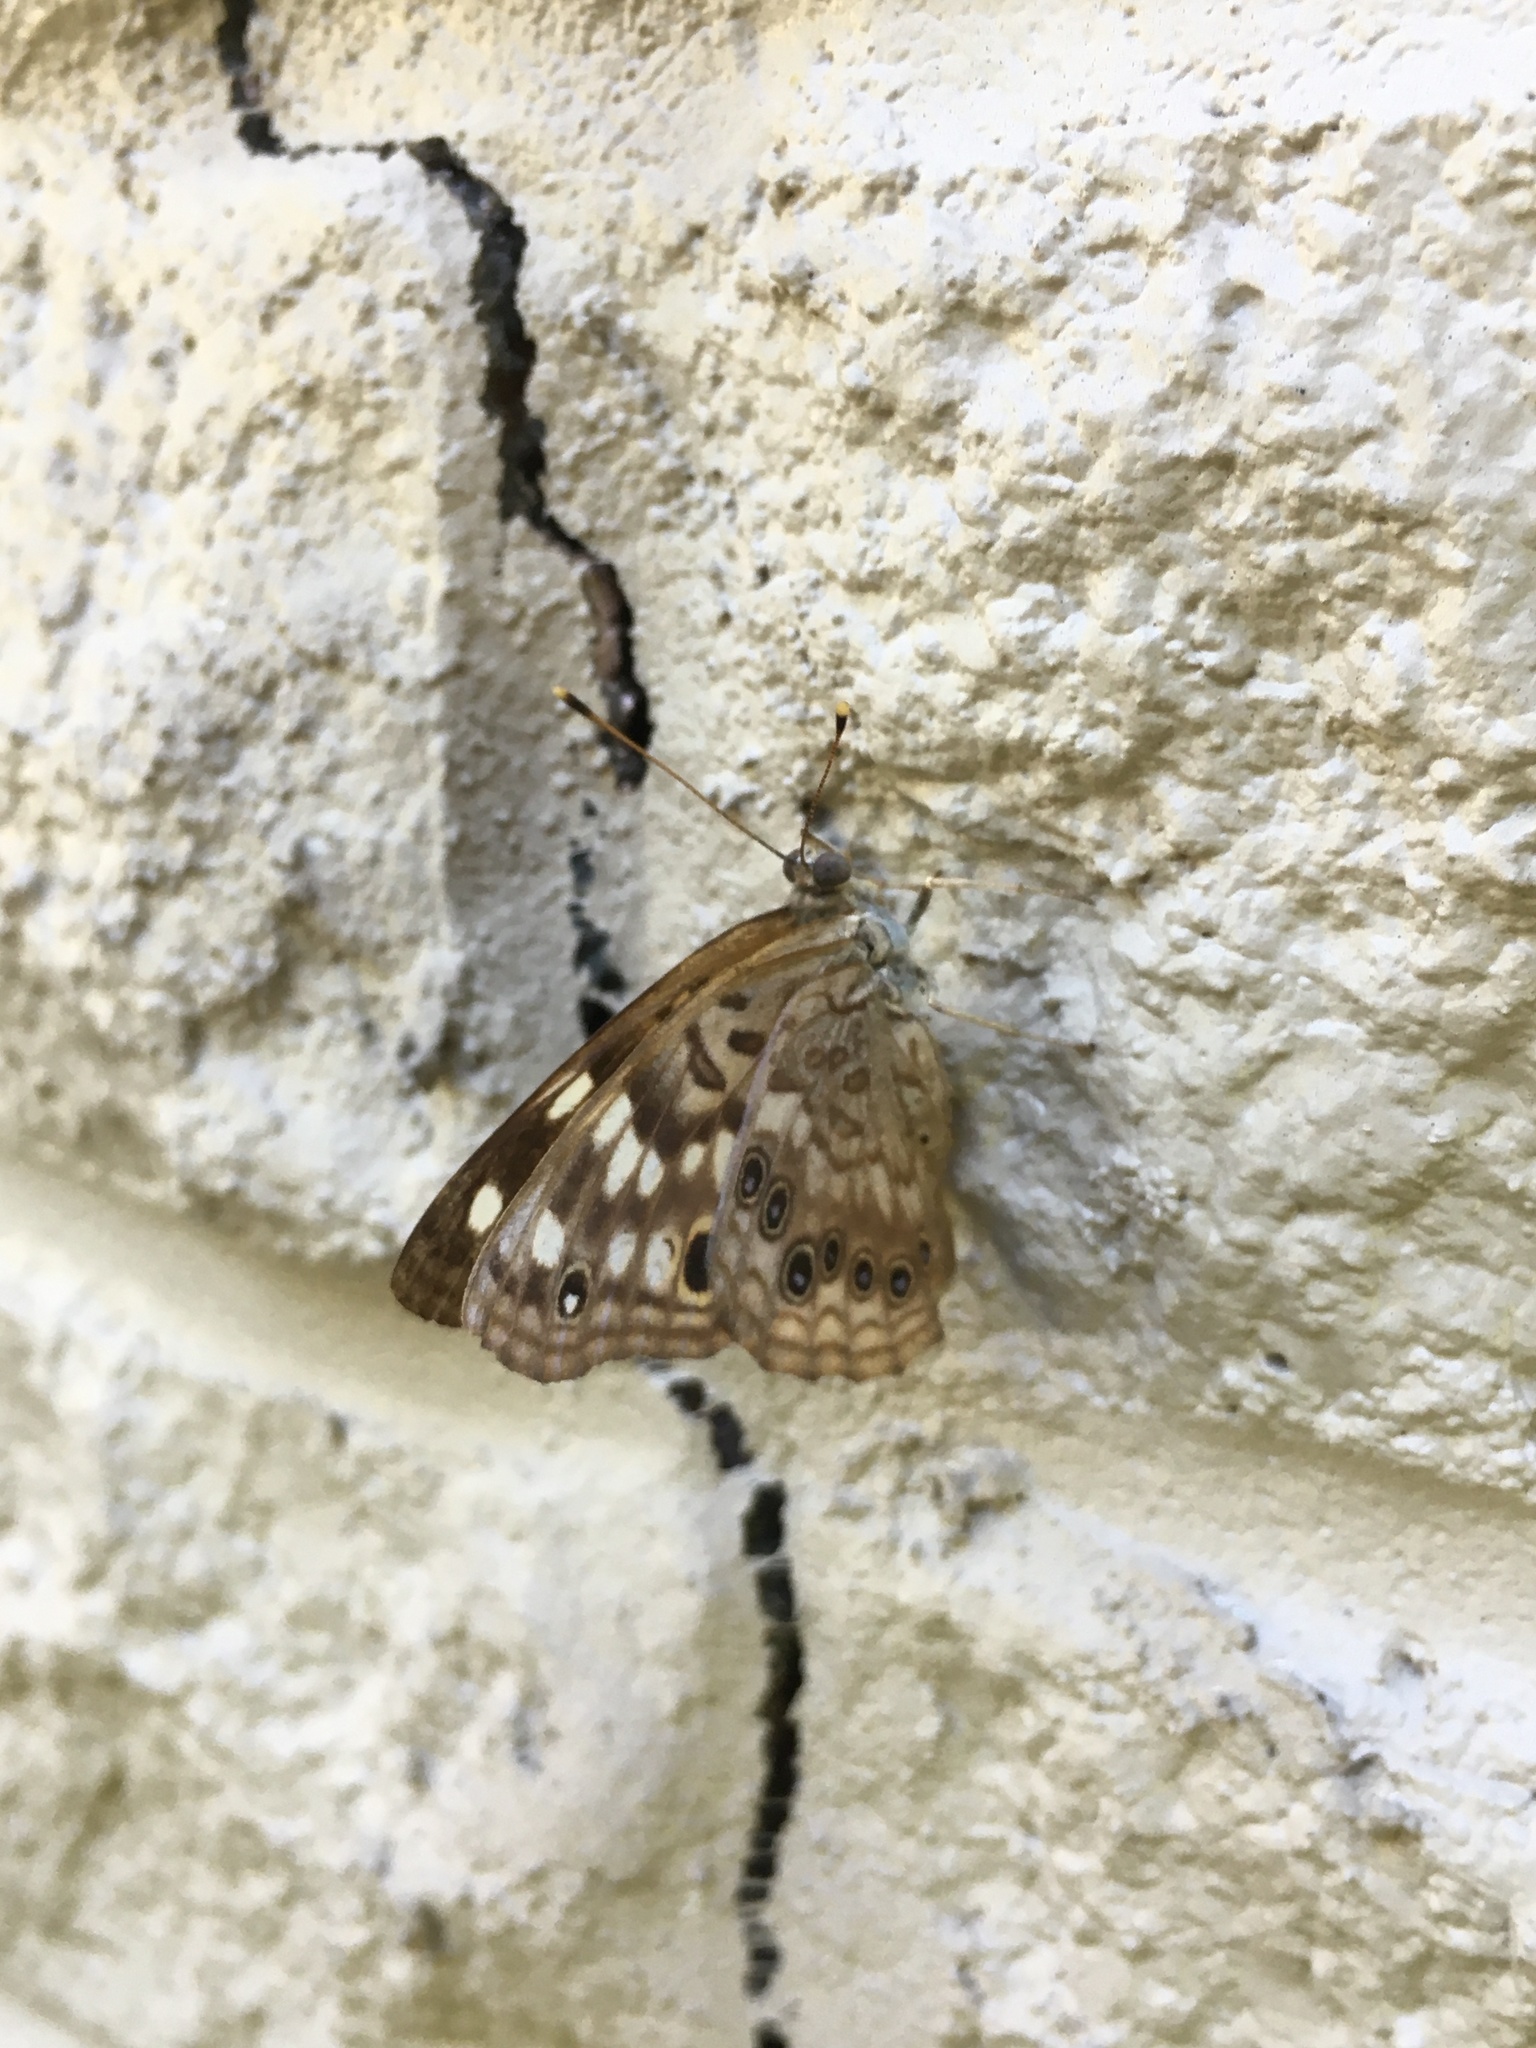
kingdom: Animalia
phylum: Arthropoda
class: Insecta
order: Lepidoptera
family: Nymphalidae
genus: Asterocampa
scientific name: Asterocampa celtis
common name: Hackberry emperor
